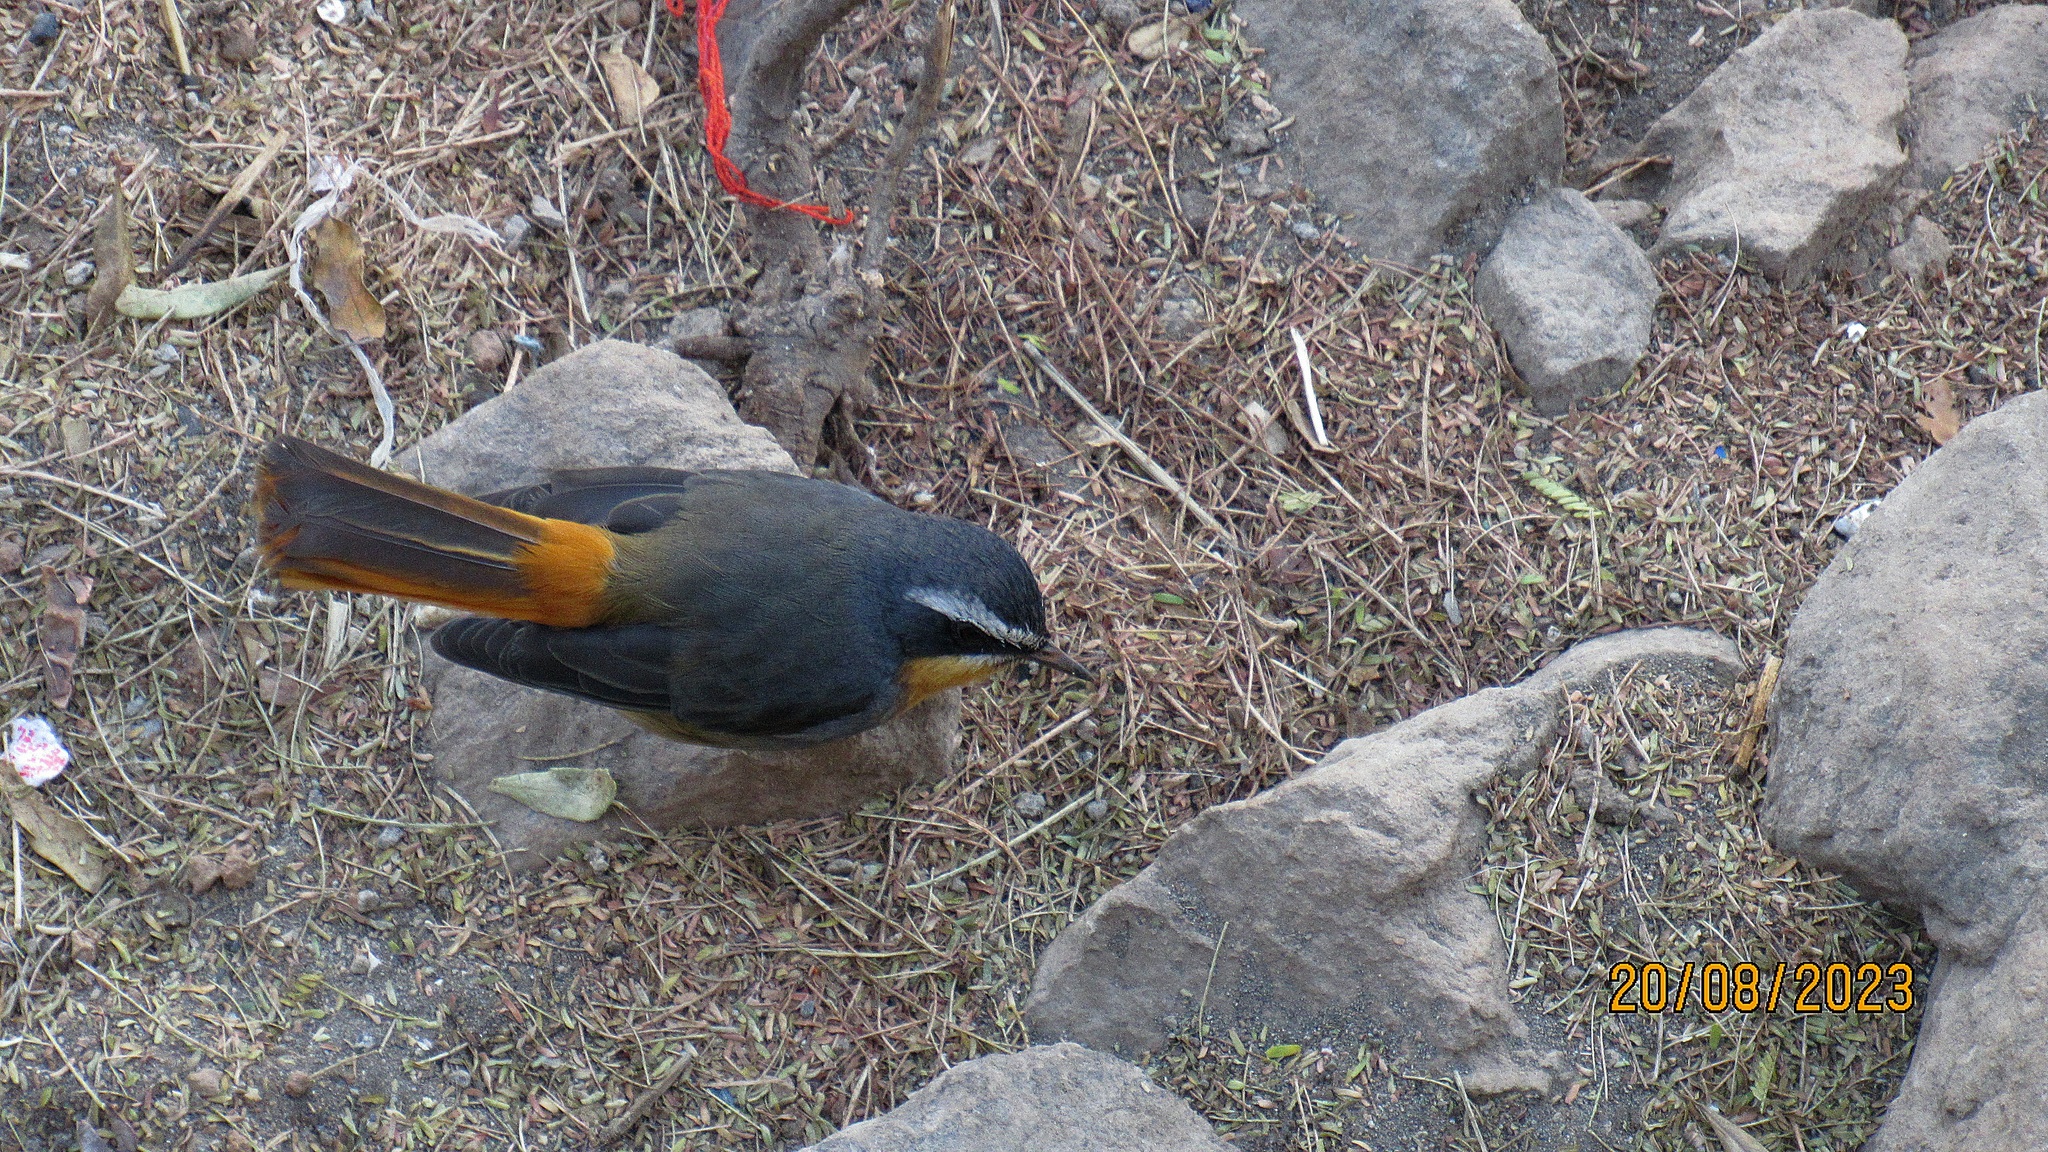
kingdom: Animalia
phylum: Chordata
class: Aves
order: Passeriformes
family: Muscicapidae
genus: Cossypha
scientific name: Cossypha caffra
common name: Cape robin-chat
